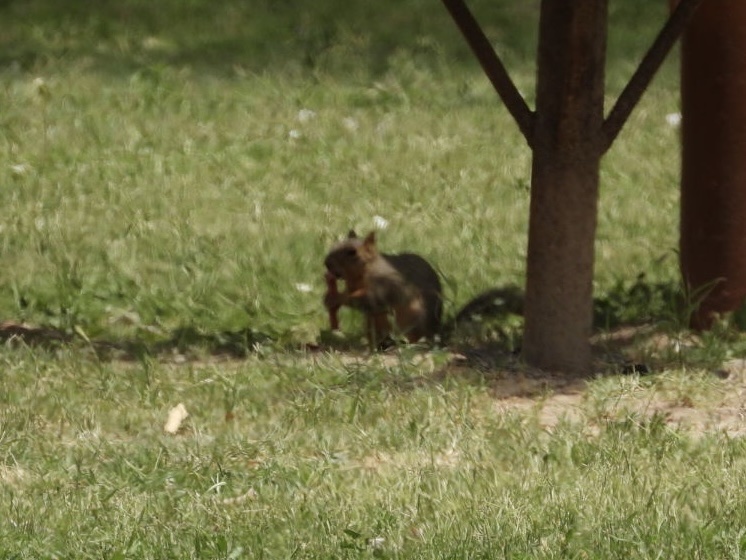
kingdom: Animalia
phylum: Chordata
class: Mammalia
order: Rodentia
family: Sciuridae
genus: Sciurus
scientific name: Sciurus niger
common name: Fox squirrel
